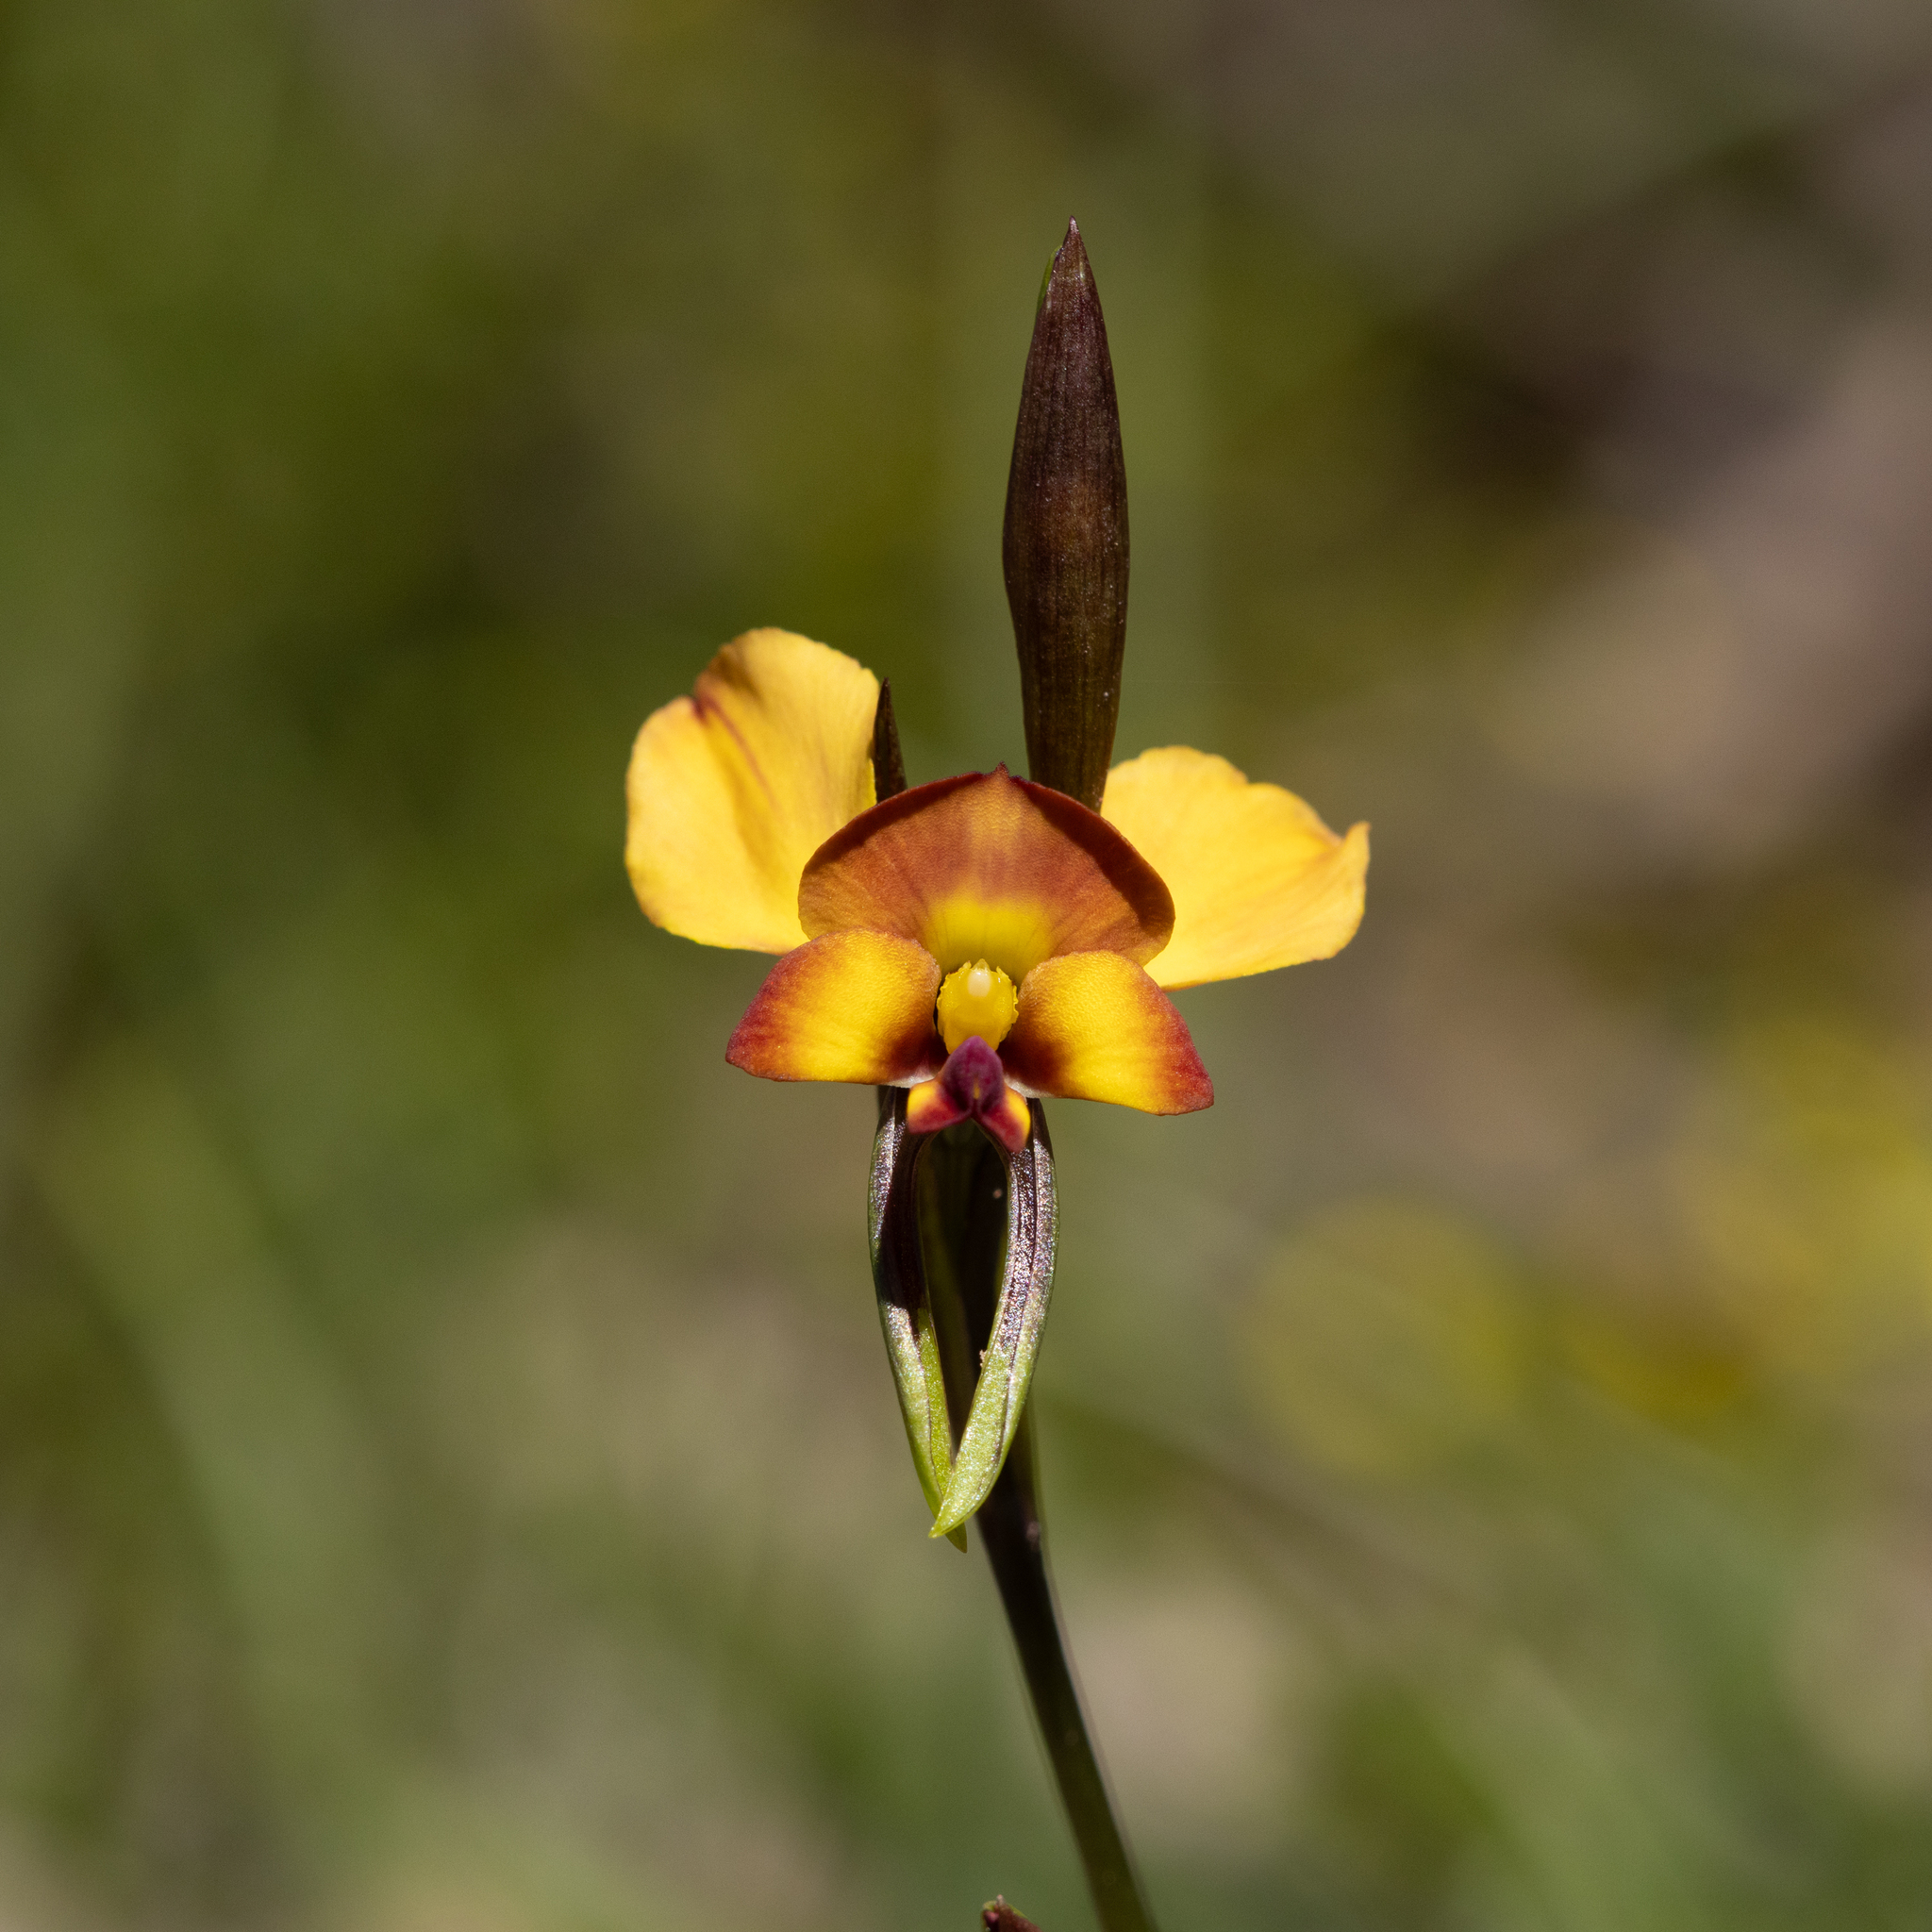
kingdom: Plantae
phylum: Tracheophyta
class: Liliopsida
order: Asparagales
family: Orchidaceae
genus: Diuris
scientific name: Diuris orientis
